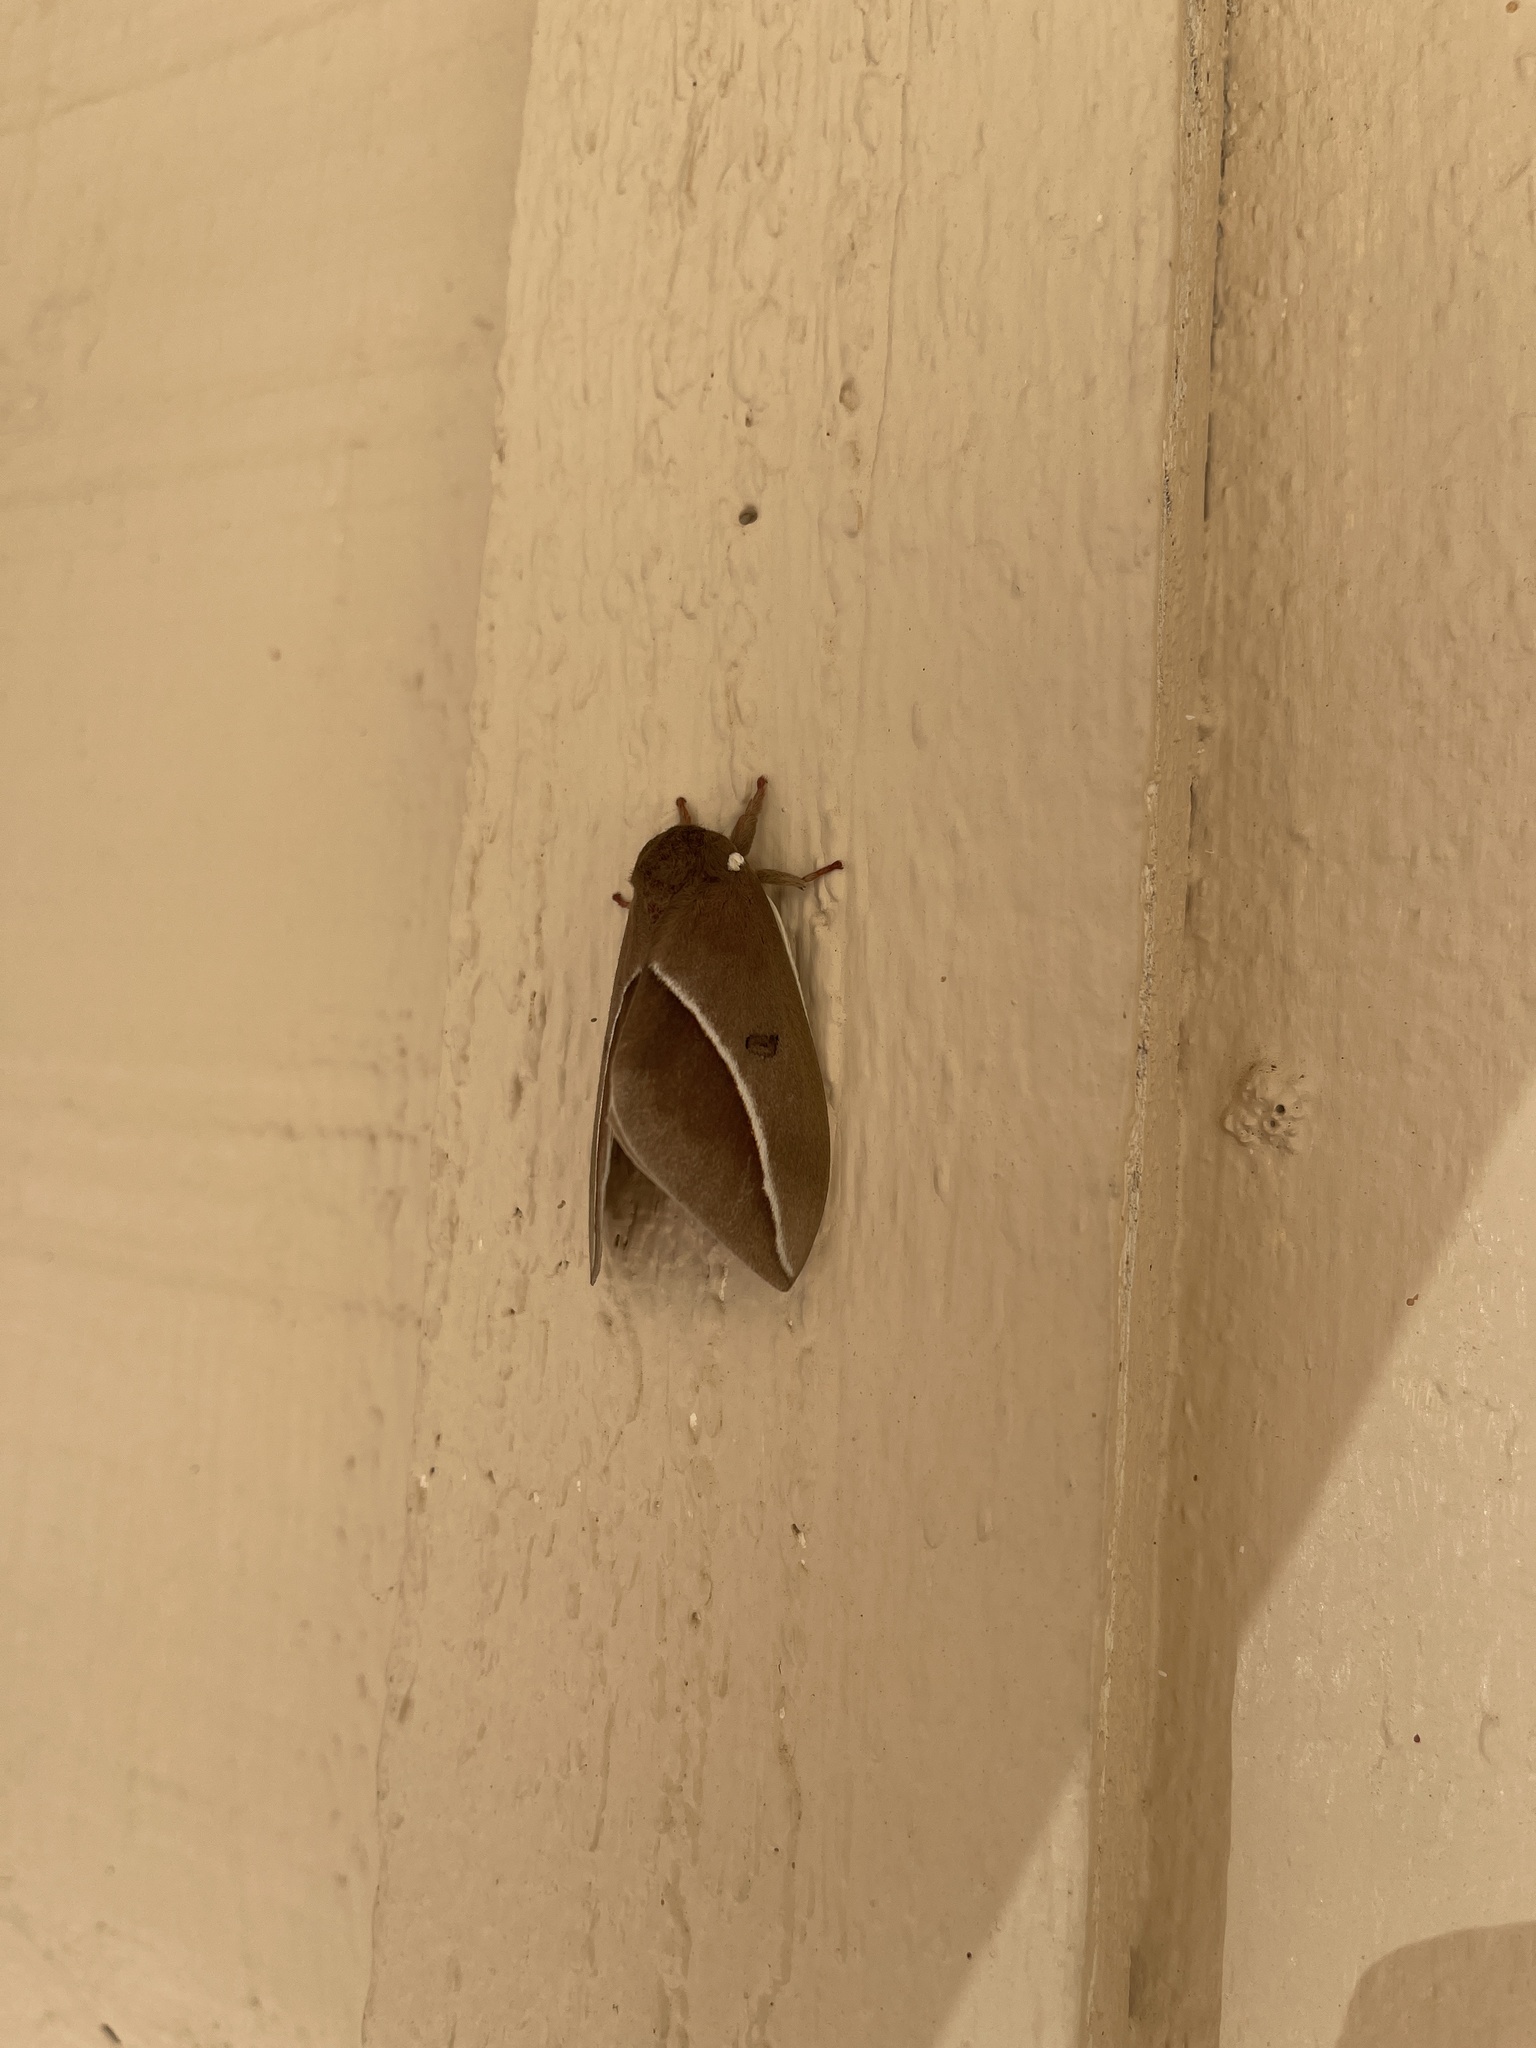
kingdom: Animalia
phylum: Arthropoda
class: Insecta
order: Lepidoptera
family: Saturniidae
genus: Automeris
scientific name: Automeris zephyria
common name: Zephyr eyed silkmoth
